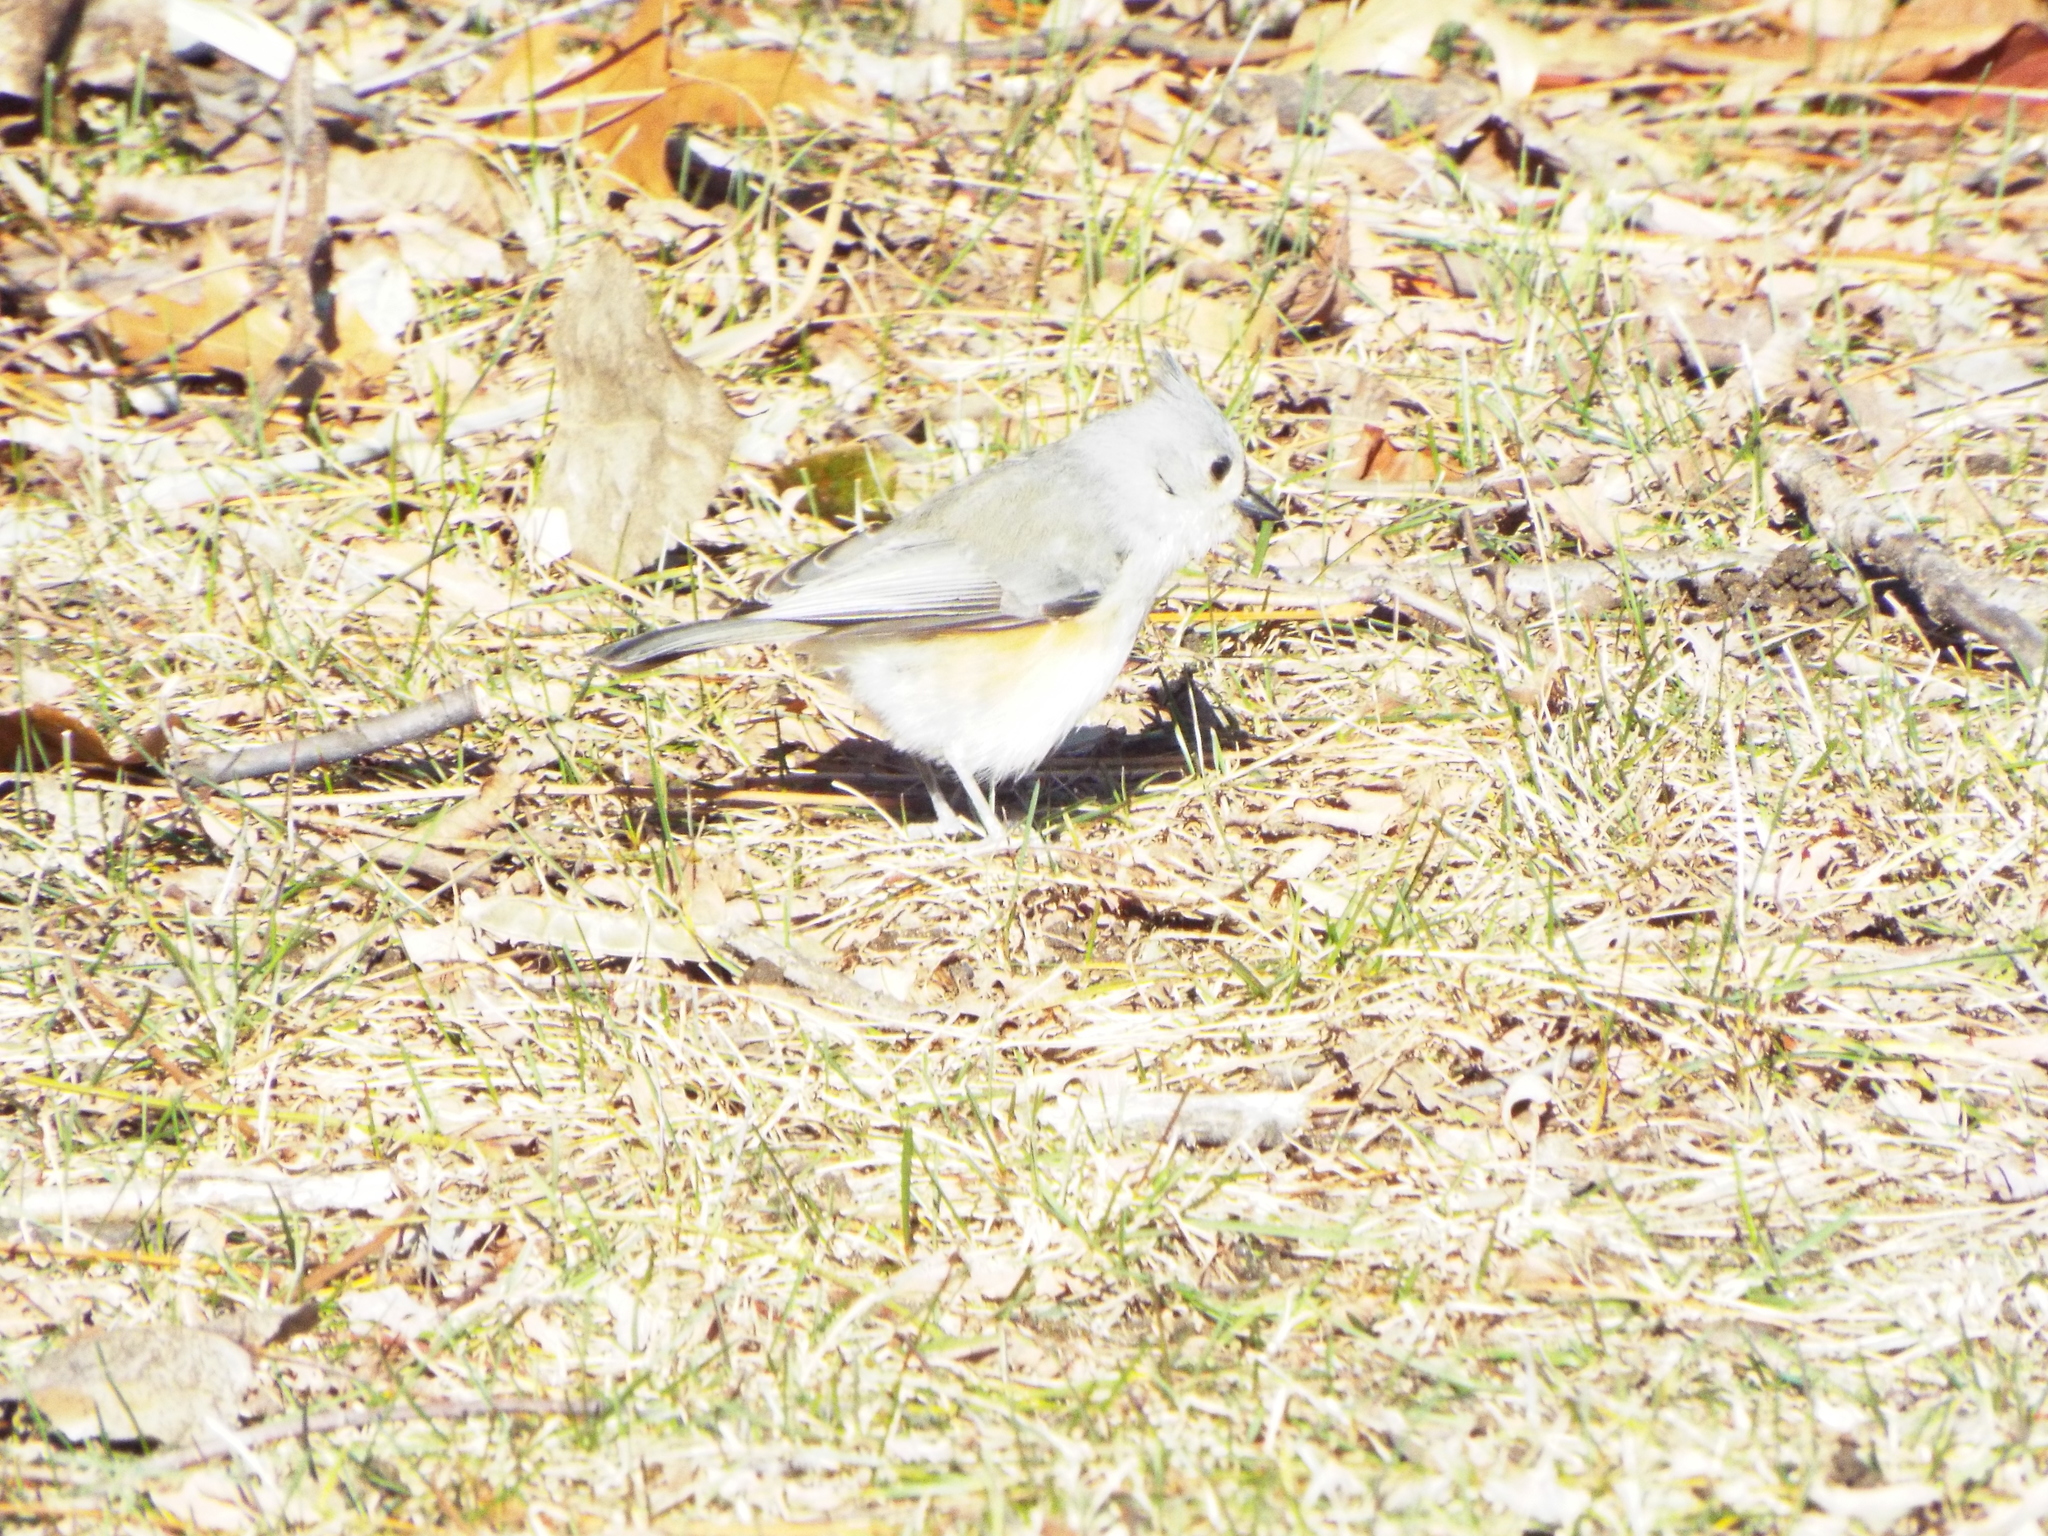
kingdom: Animalia
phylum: Chordata
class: Aves
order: Passeriformes
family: Paridae
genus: Baeolophus
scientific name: Baeolophus bicolor
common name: Tufted titmouse
